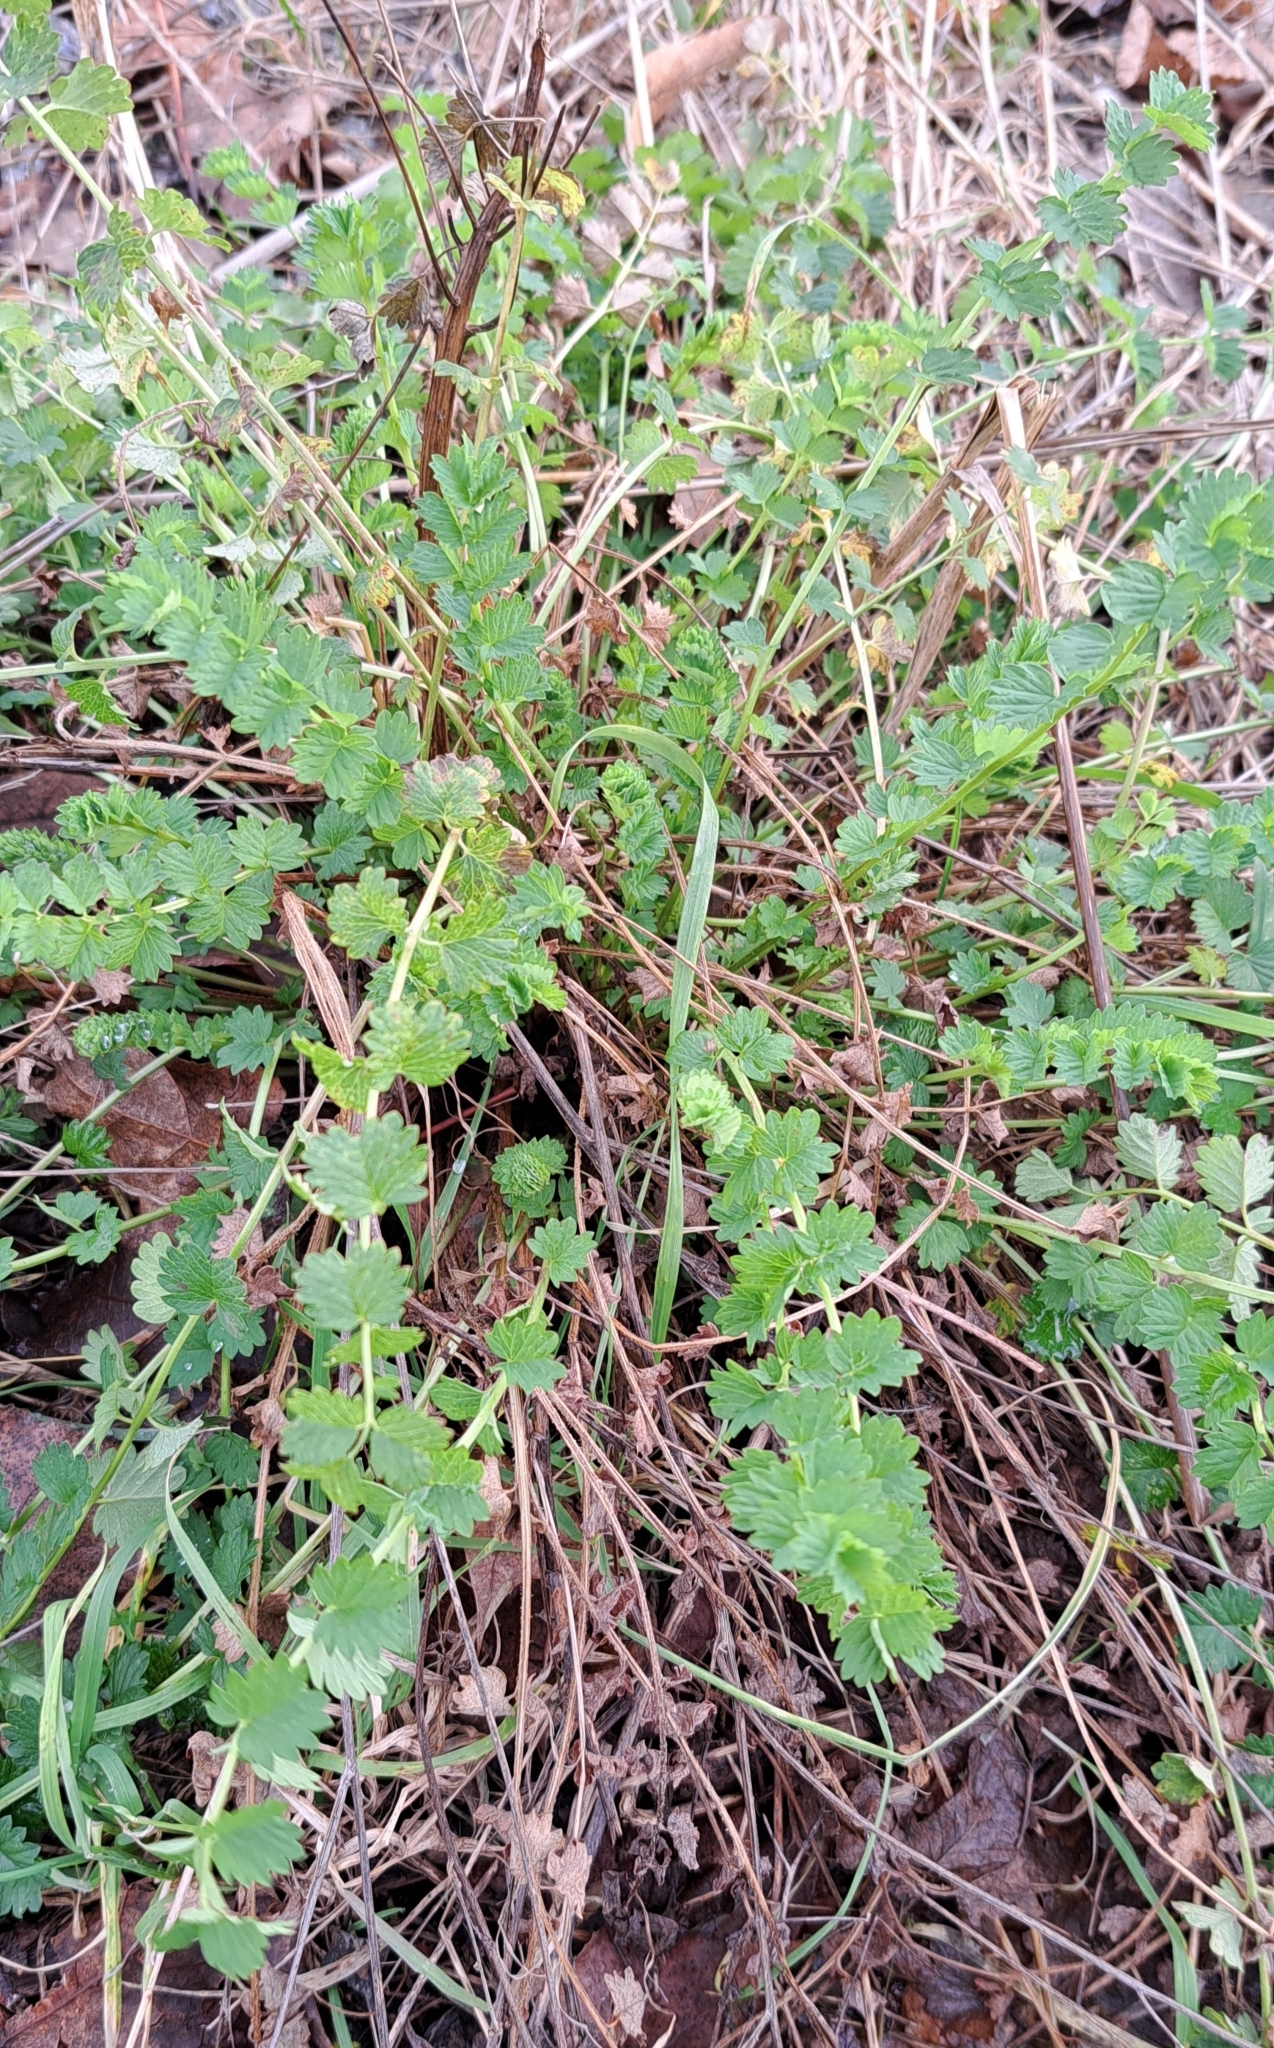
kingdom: Plantae
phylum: Tracheophyta
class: Magnoliopsida
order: Rosales
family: Rosaceae
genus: Poterium
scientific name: Poterium sanguisorba
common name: Salad burnet
